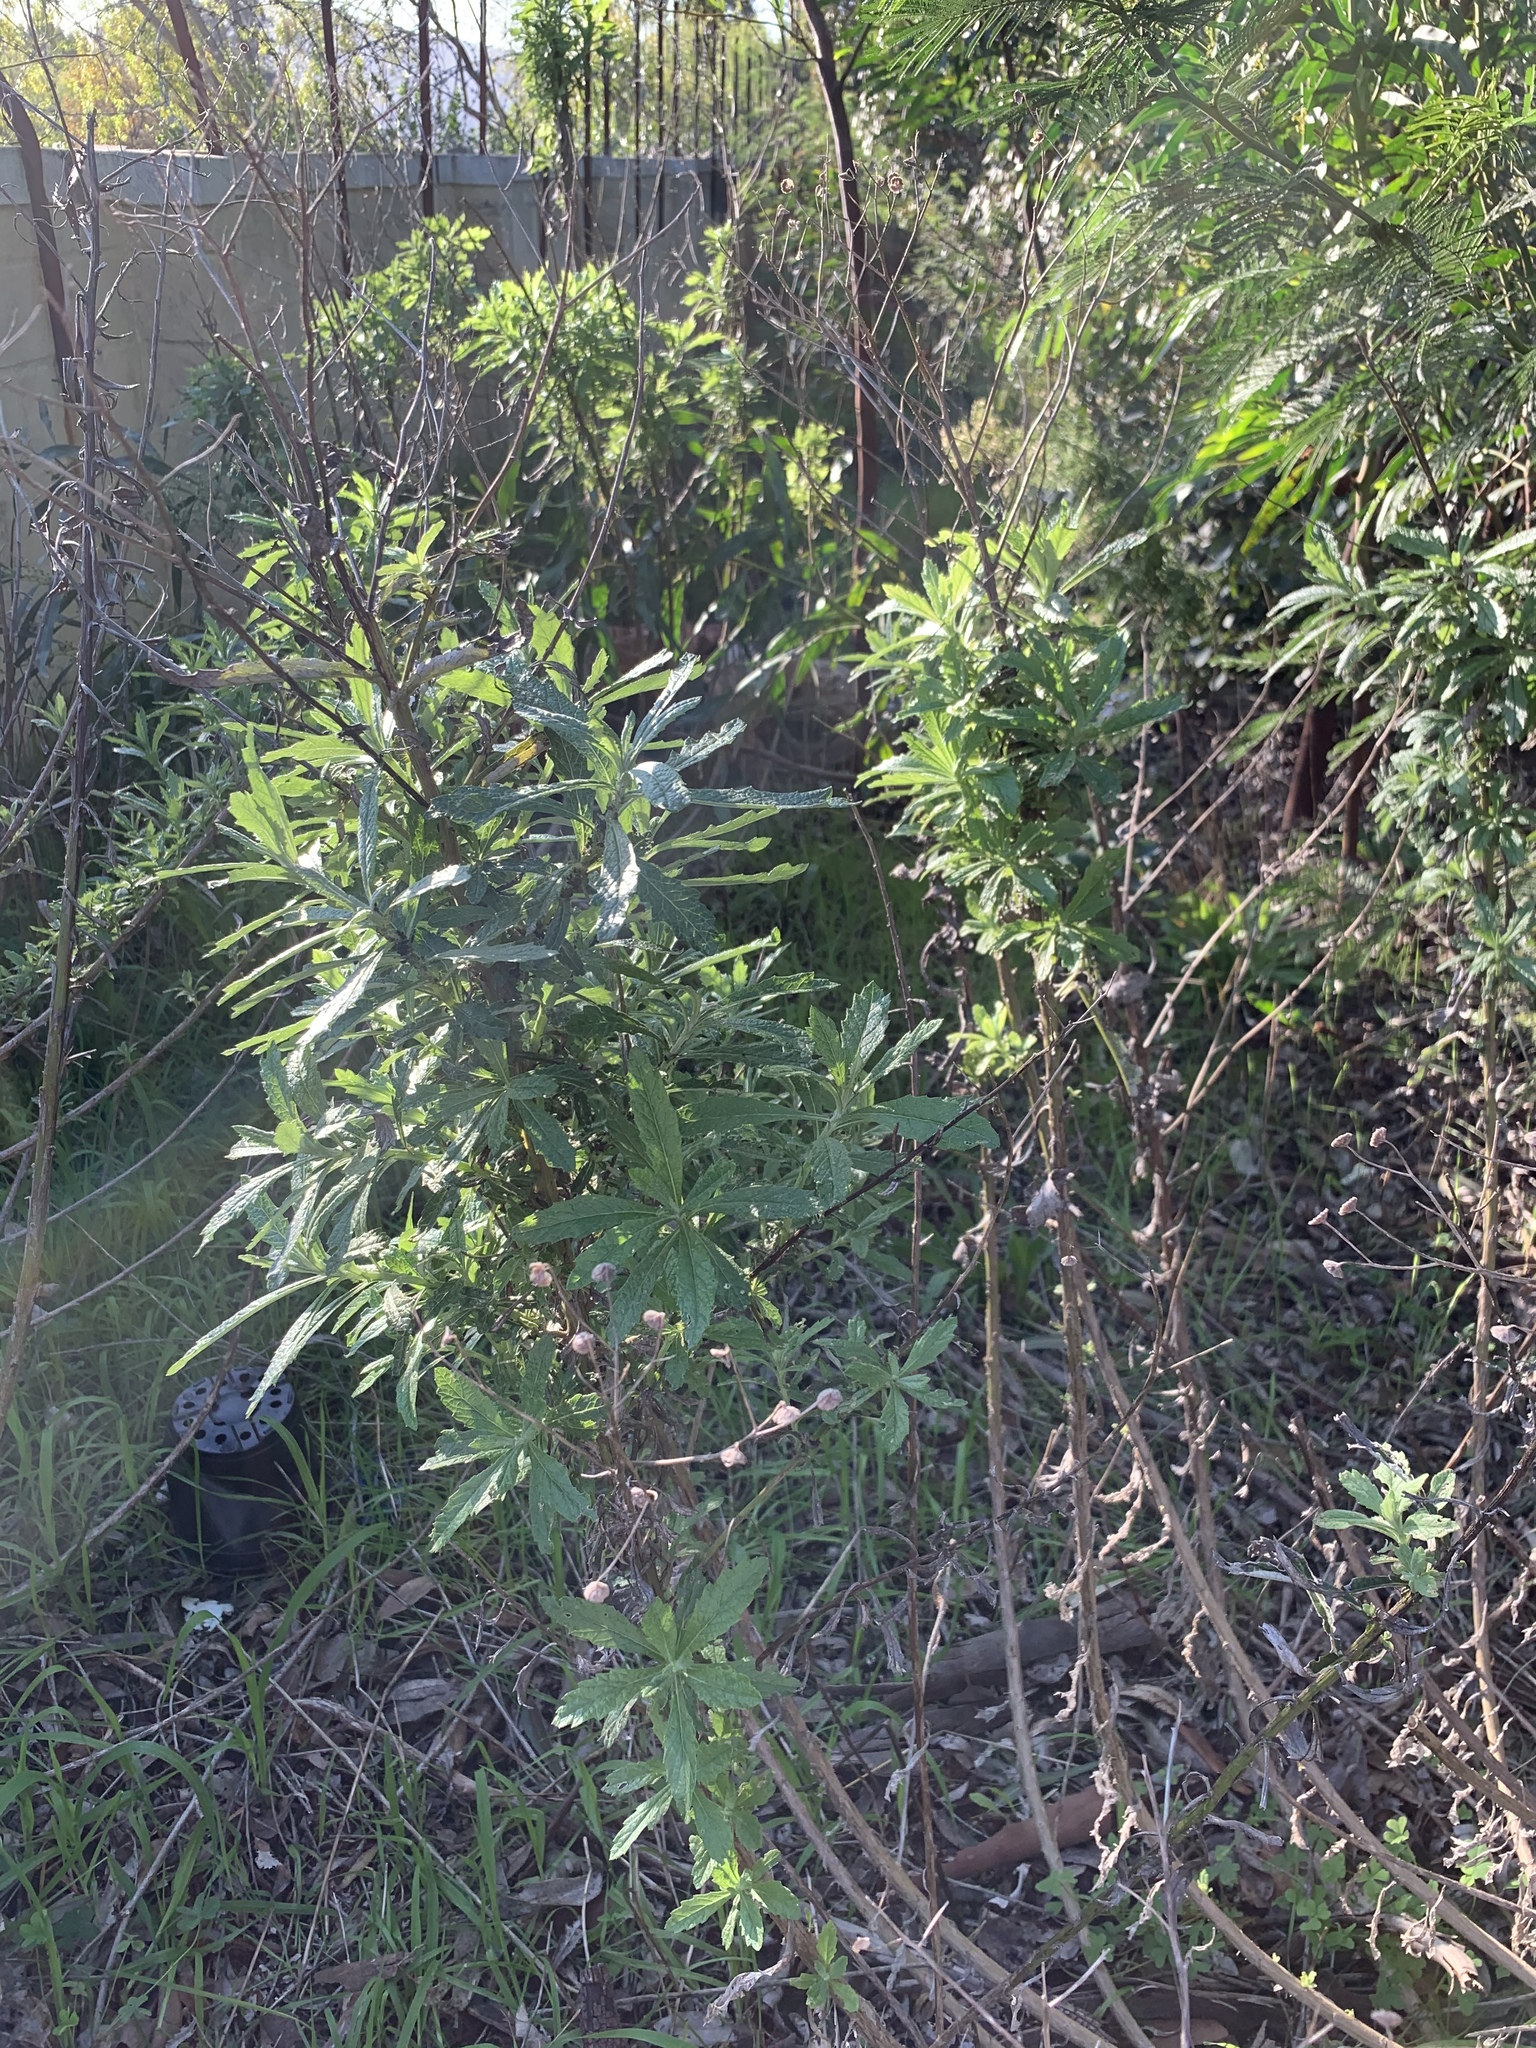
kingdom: Plantae
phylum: Tracheophyta
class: Magnoliopsida
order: Asterales
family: Asteraceae
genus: Senecio
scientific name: Senecio pterophorus
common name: Shoddy ragwort
